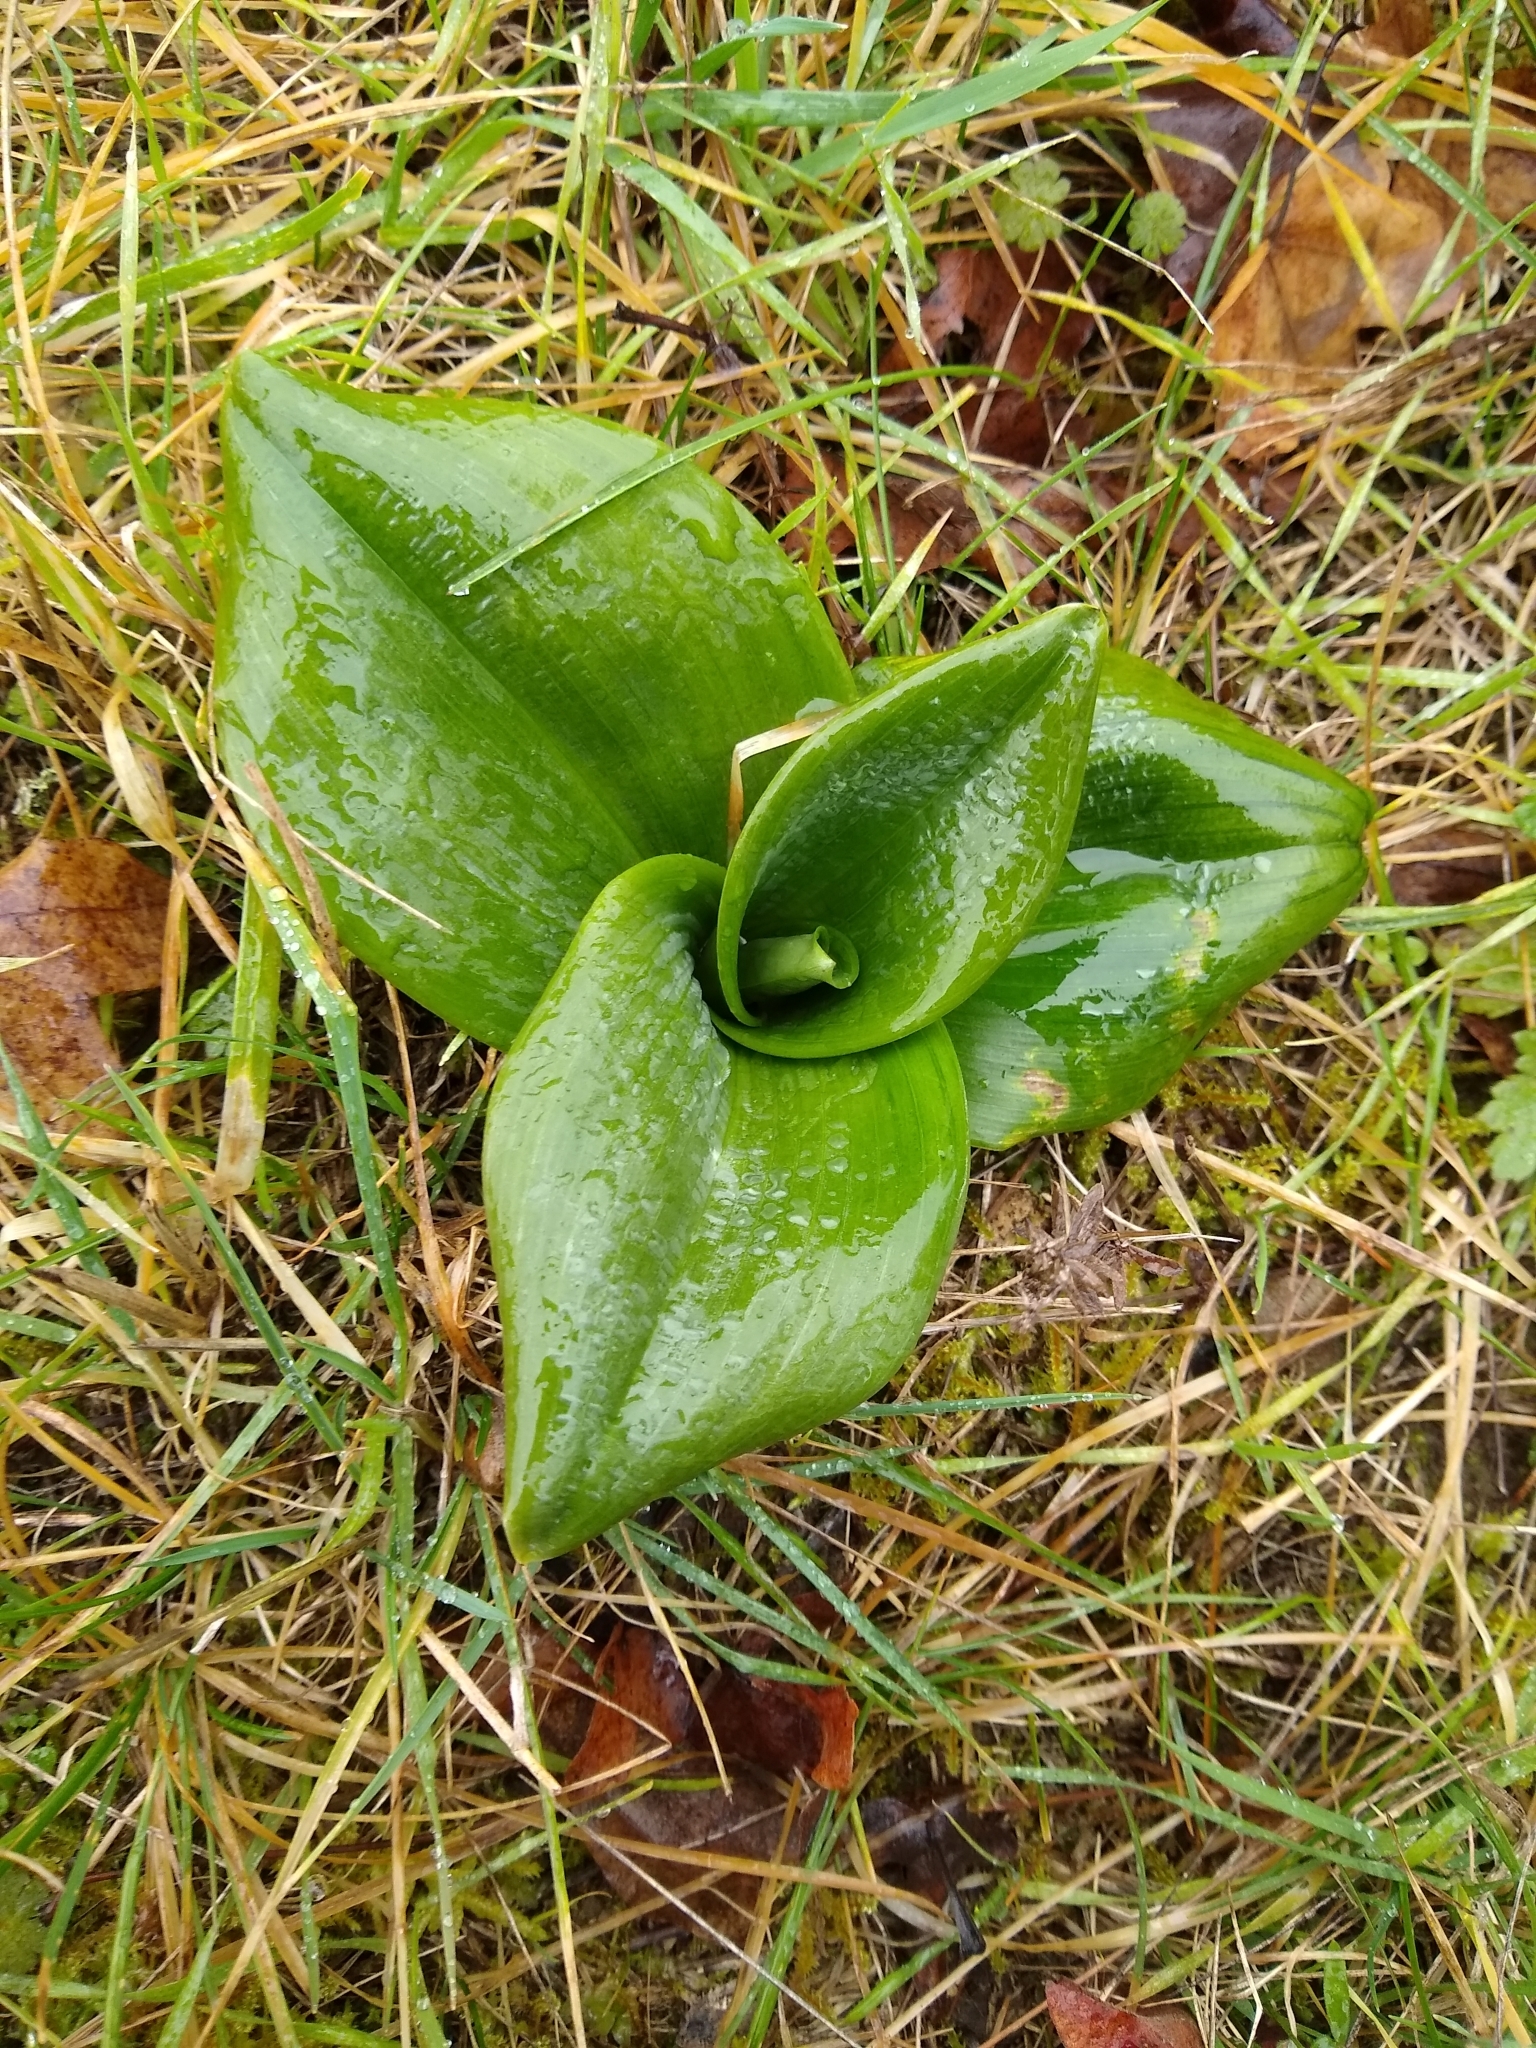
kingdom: Plantae
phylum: Tracheophyta
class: Liliopsida
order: Asparagales
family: Orchidaceae
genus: Himantoglossum
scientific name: Himantoglossum hircinum
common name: Lizard orchid
